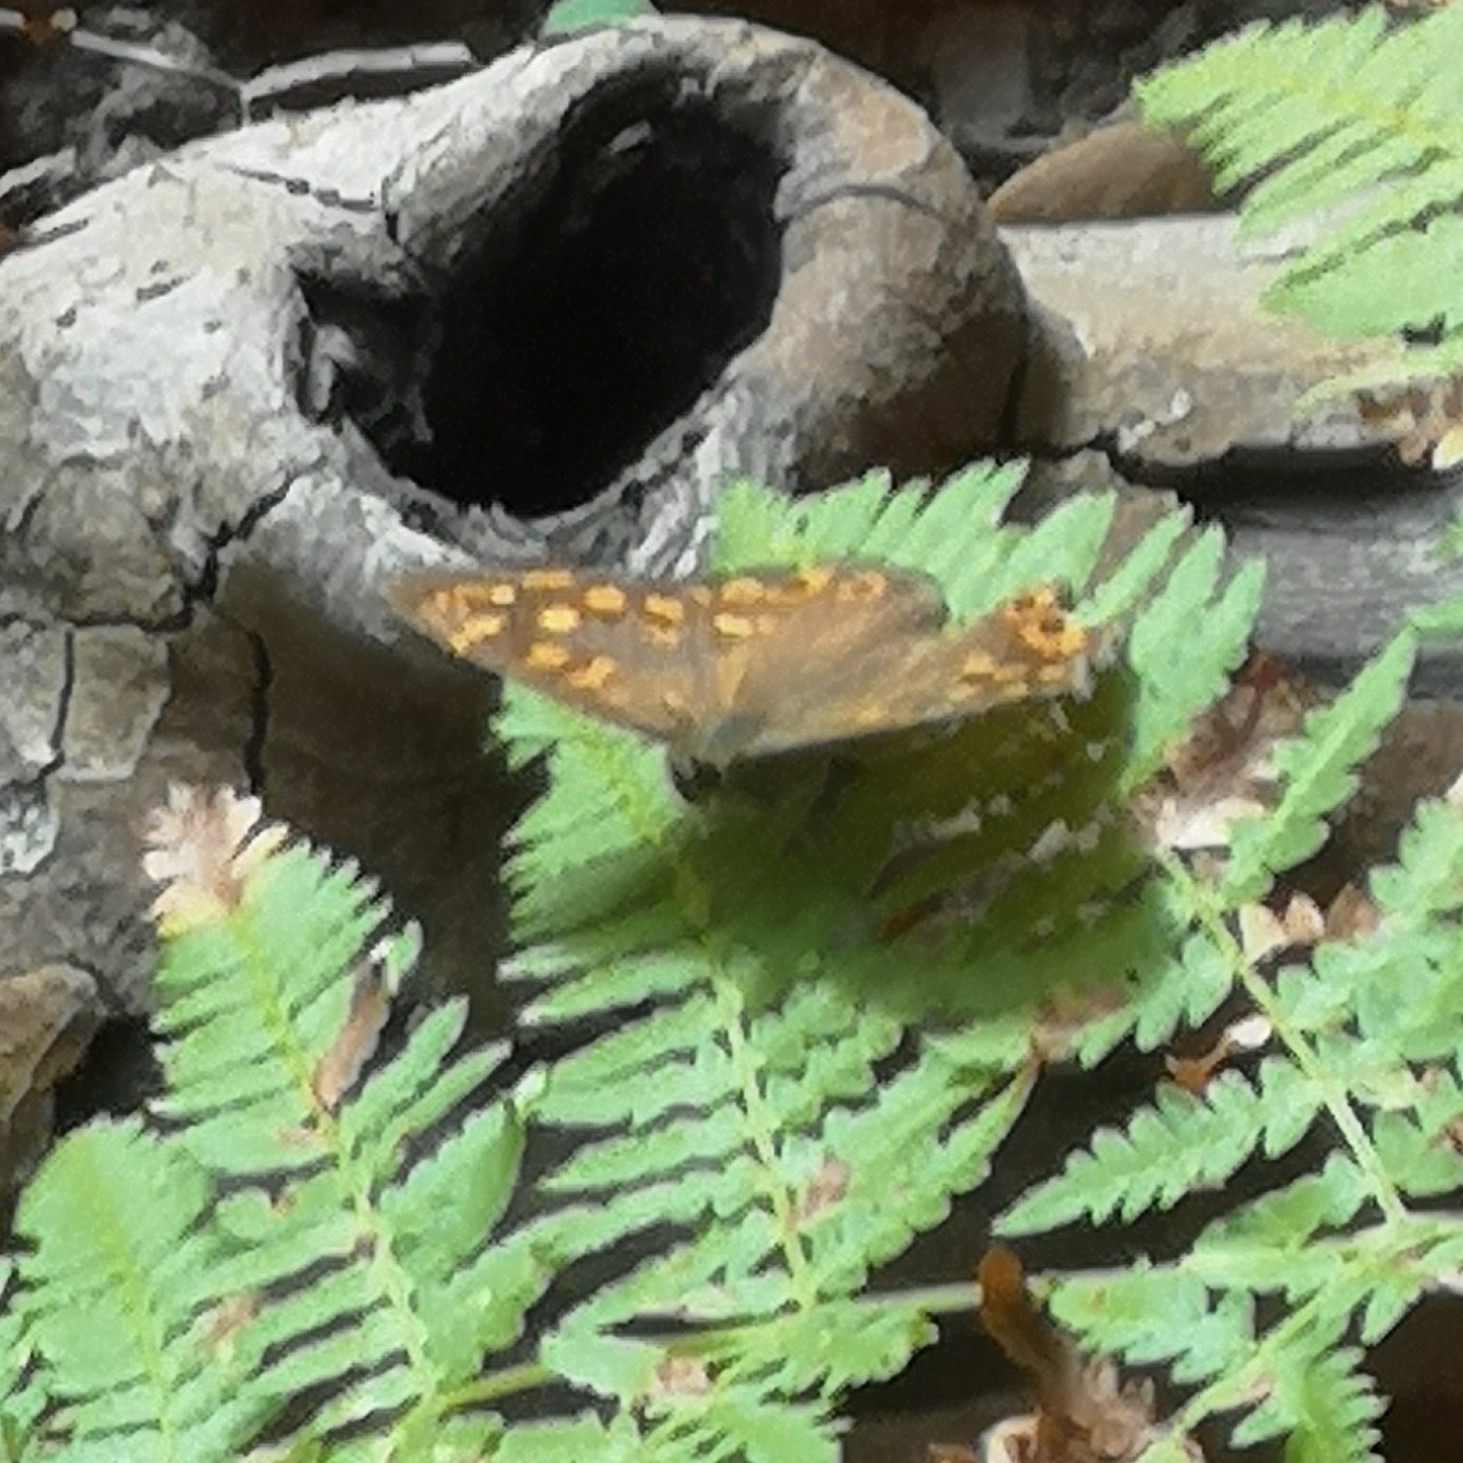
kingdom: Animalia
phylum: Arthropoda
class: Insecta
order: Lepidoptera
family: Nymphalidae
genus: Pararge
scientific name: Pararge aegeria
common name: Speckled wood
